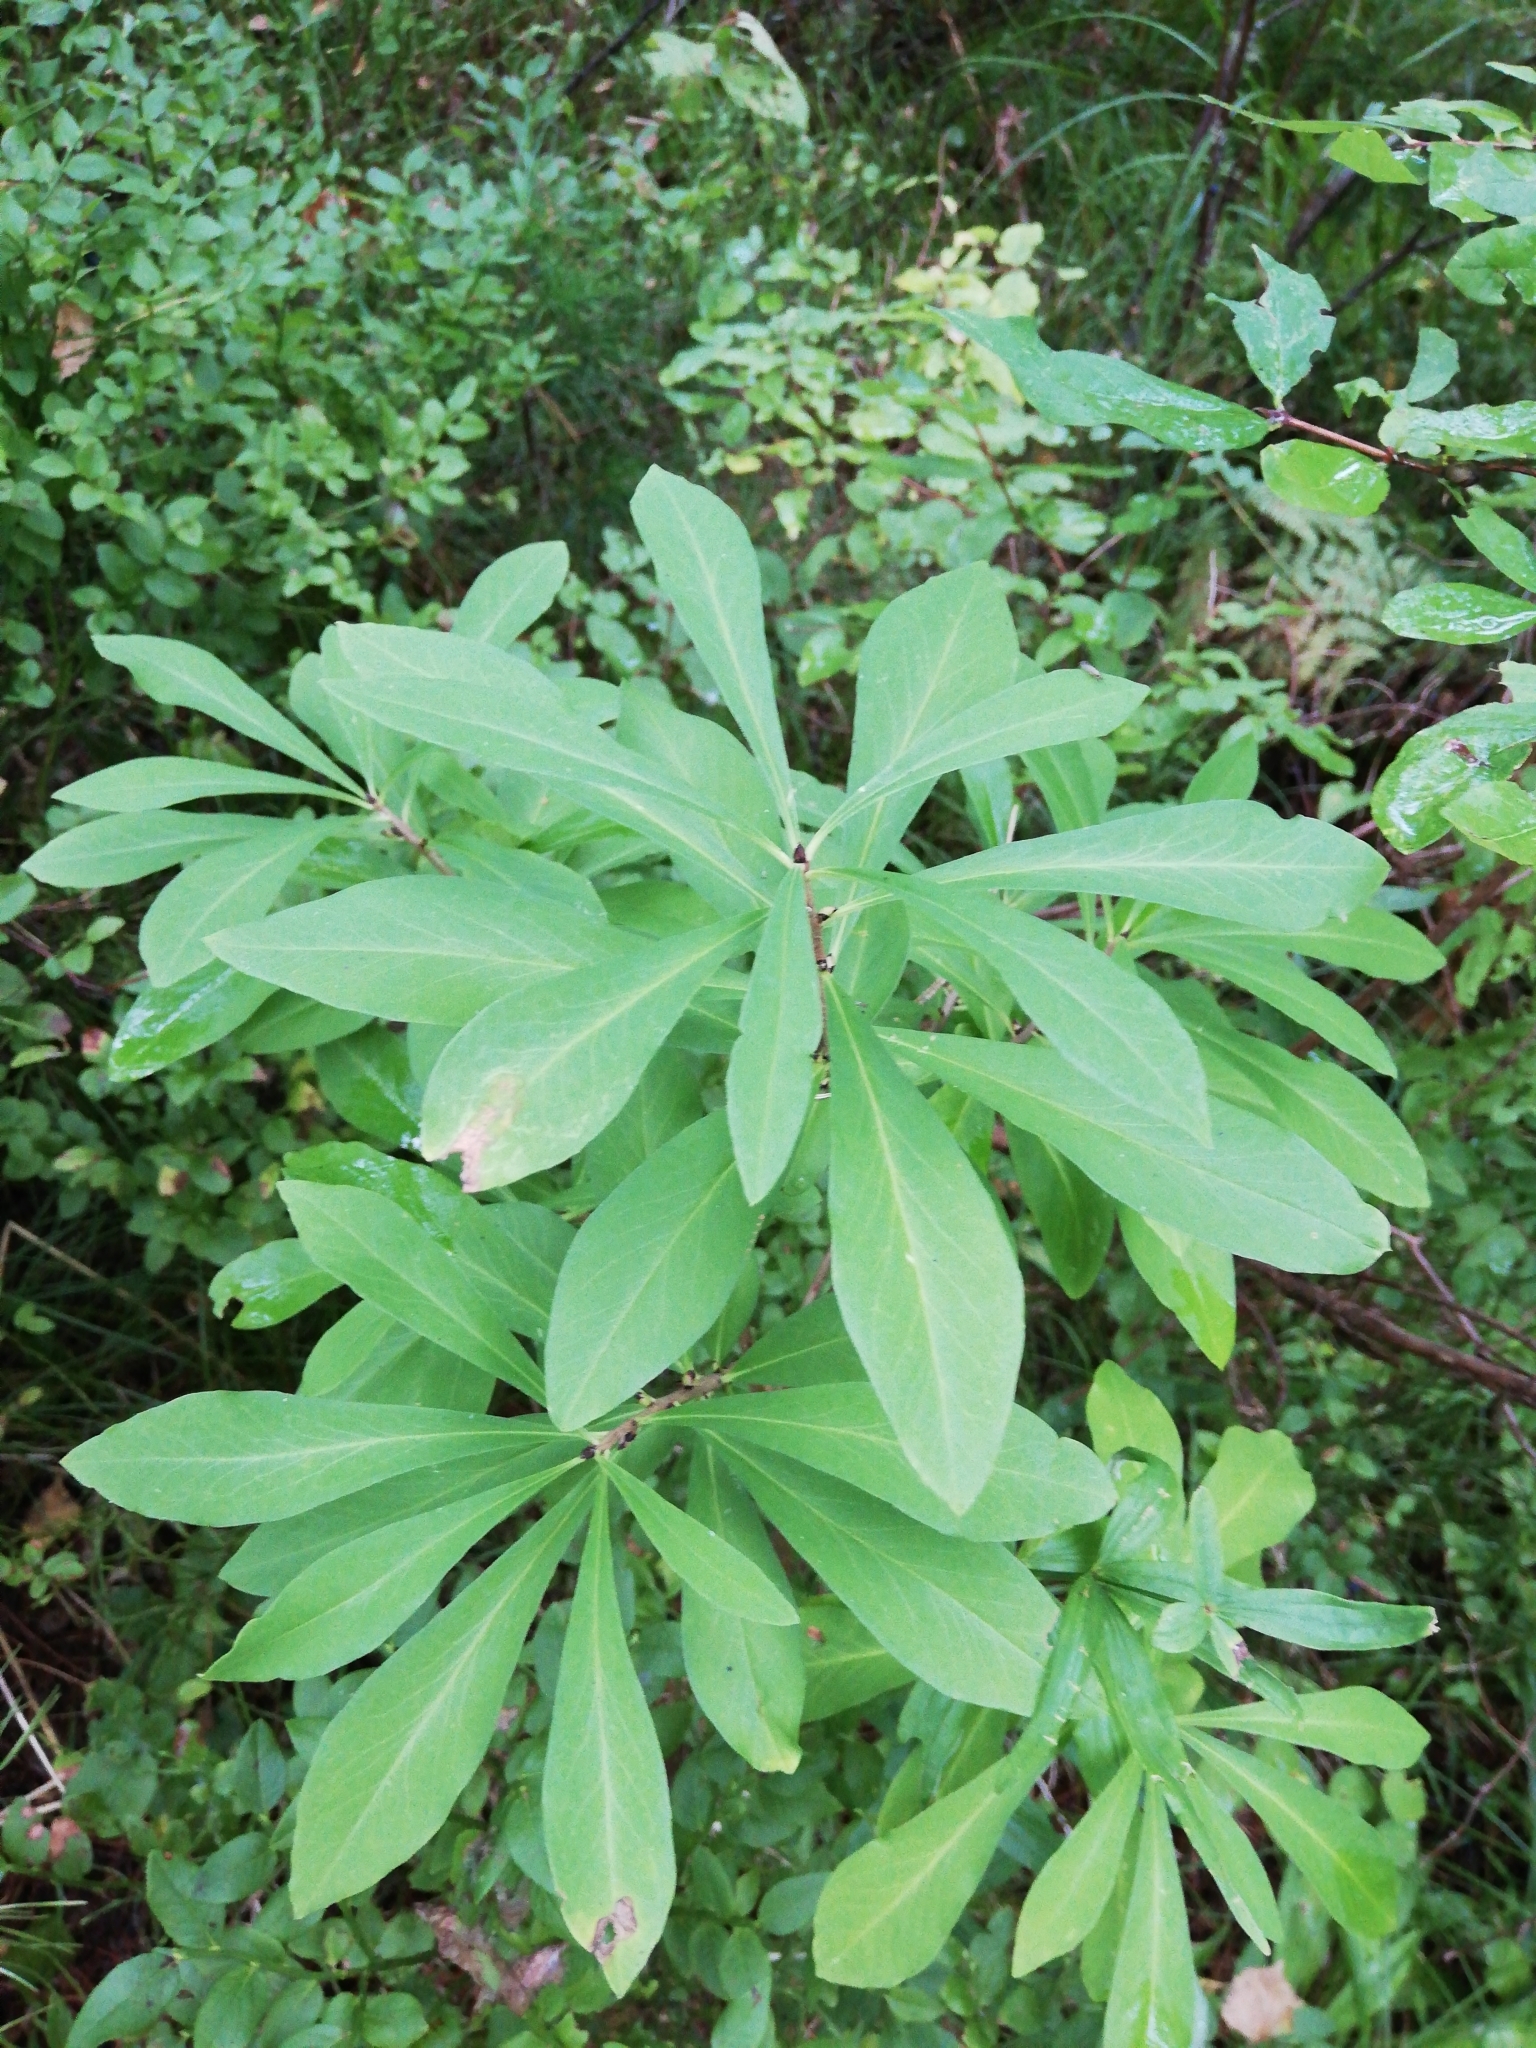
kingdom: Plantae
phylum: Tracheophyta
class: Magnoliopsida
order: Malvales
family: Thymelaeaceae
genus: Daphne
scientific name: Daphne mezereum
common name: Mezereon
